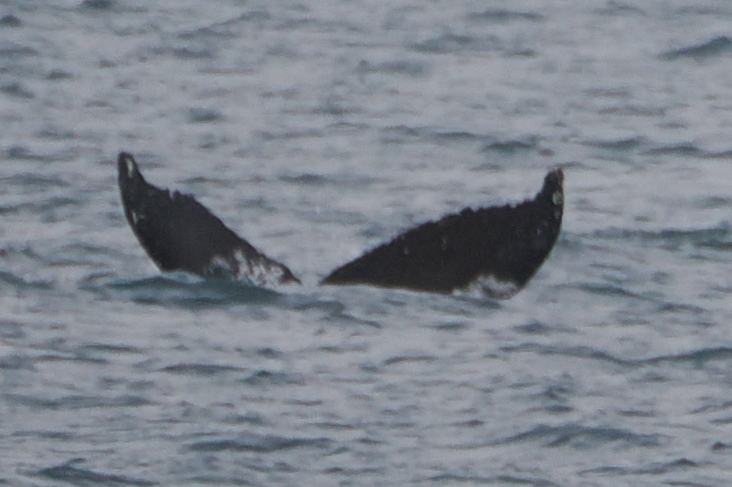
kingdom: Animalia
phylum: Chordata
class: Mammalia
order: Cetacea
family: Balaenopteridae
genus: Megaptera
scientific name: Megaptera novaeangliae
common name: Humpback whale
